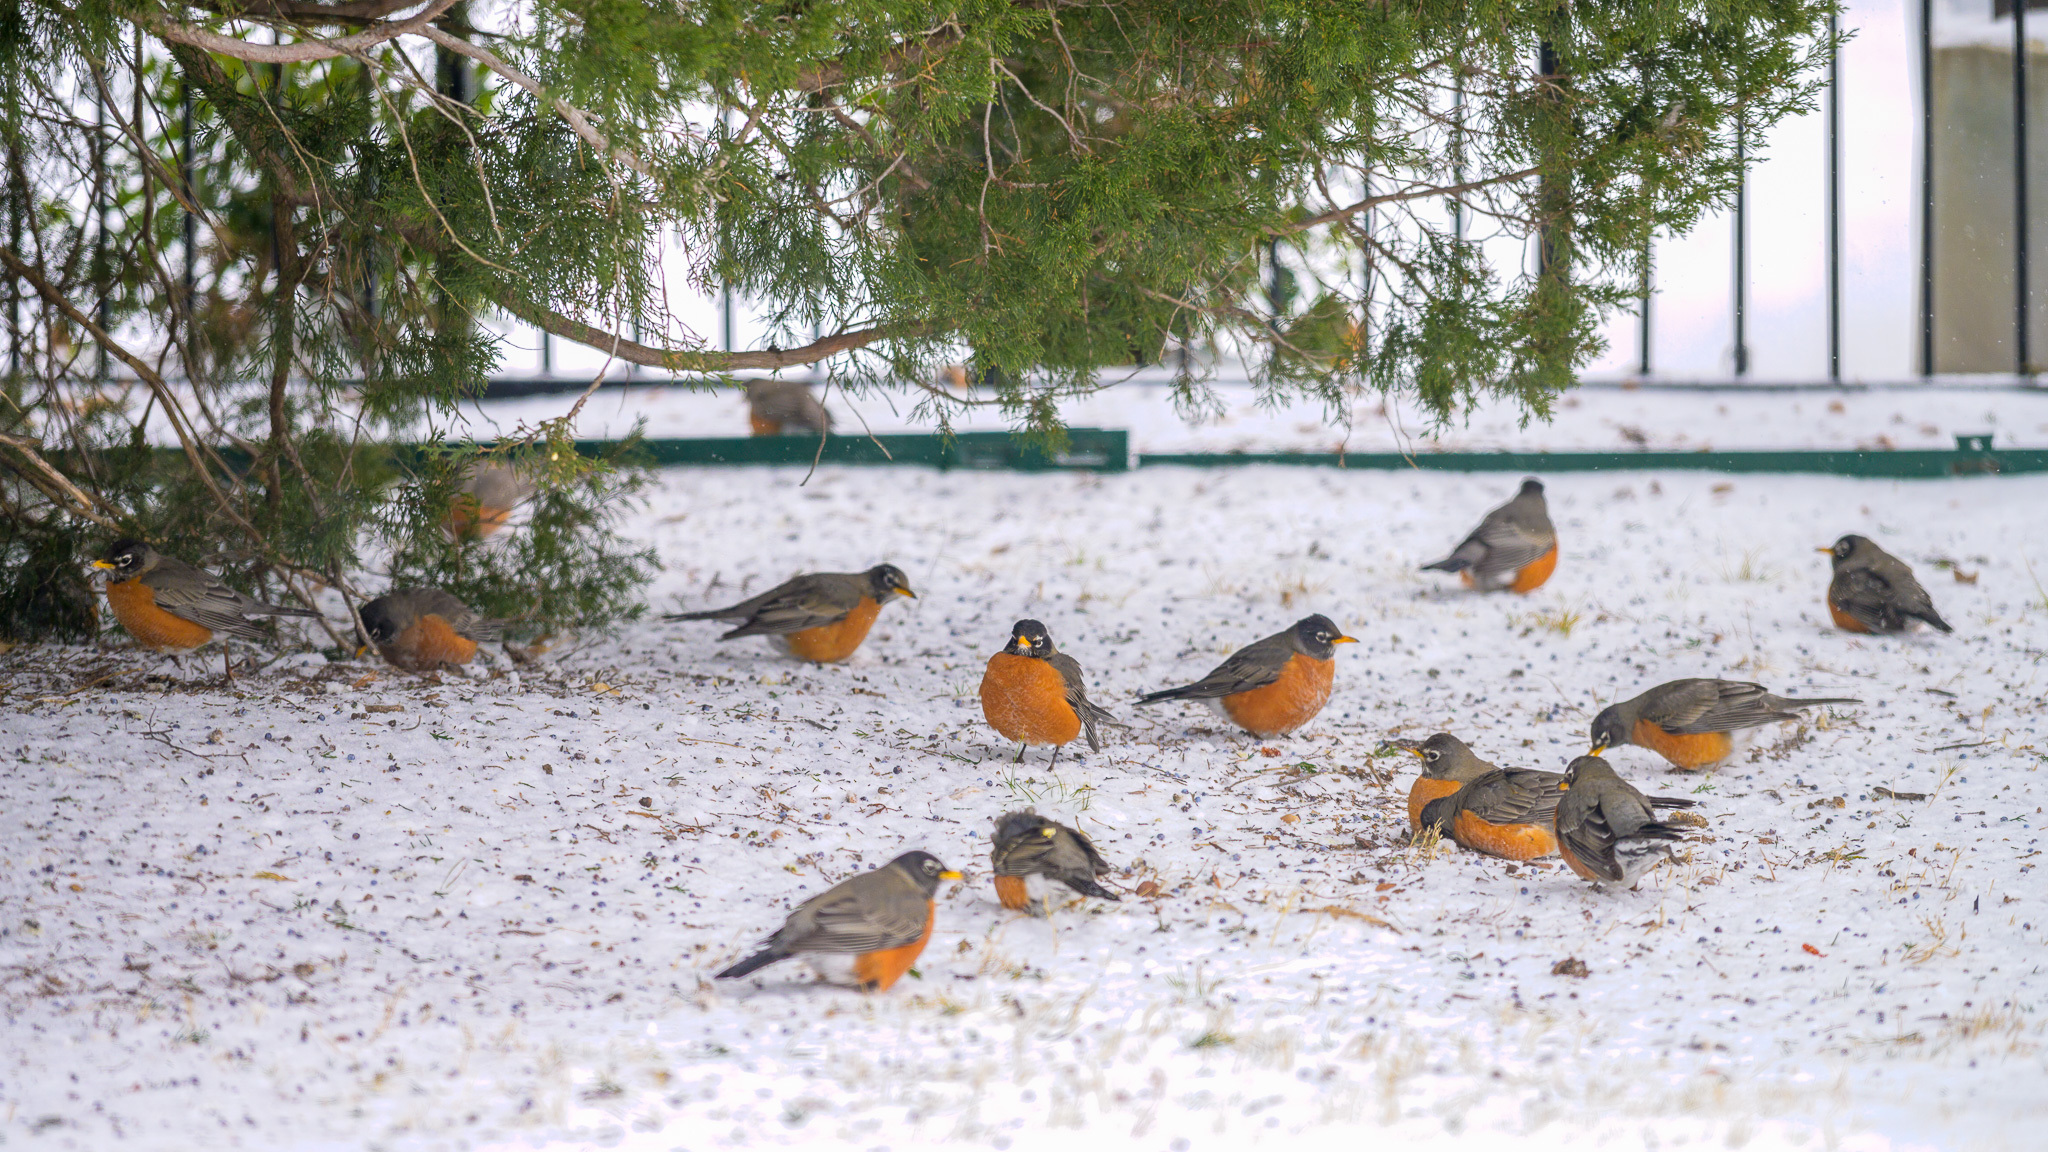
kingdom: Animalia
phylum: Chordata
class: Aves
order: Passeriformes
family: Turdidae
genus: Turdus
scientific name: Turdus migratorius
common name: American robin
